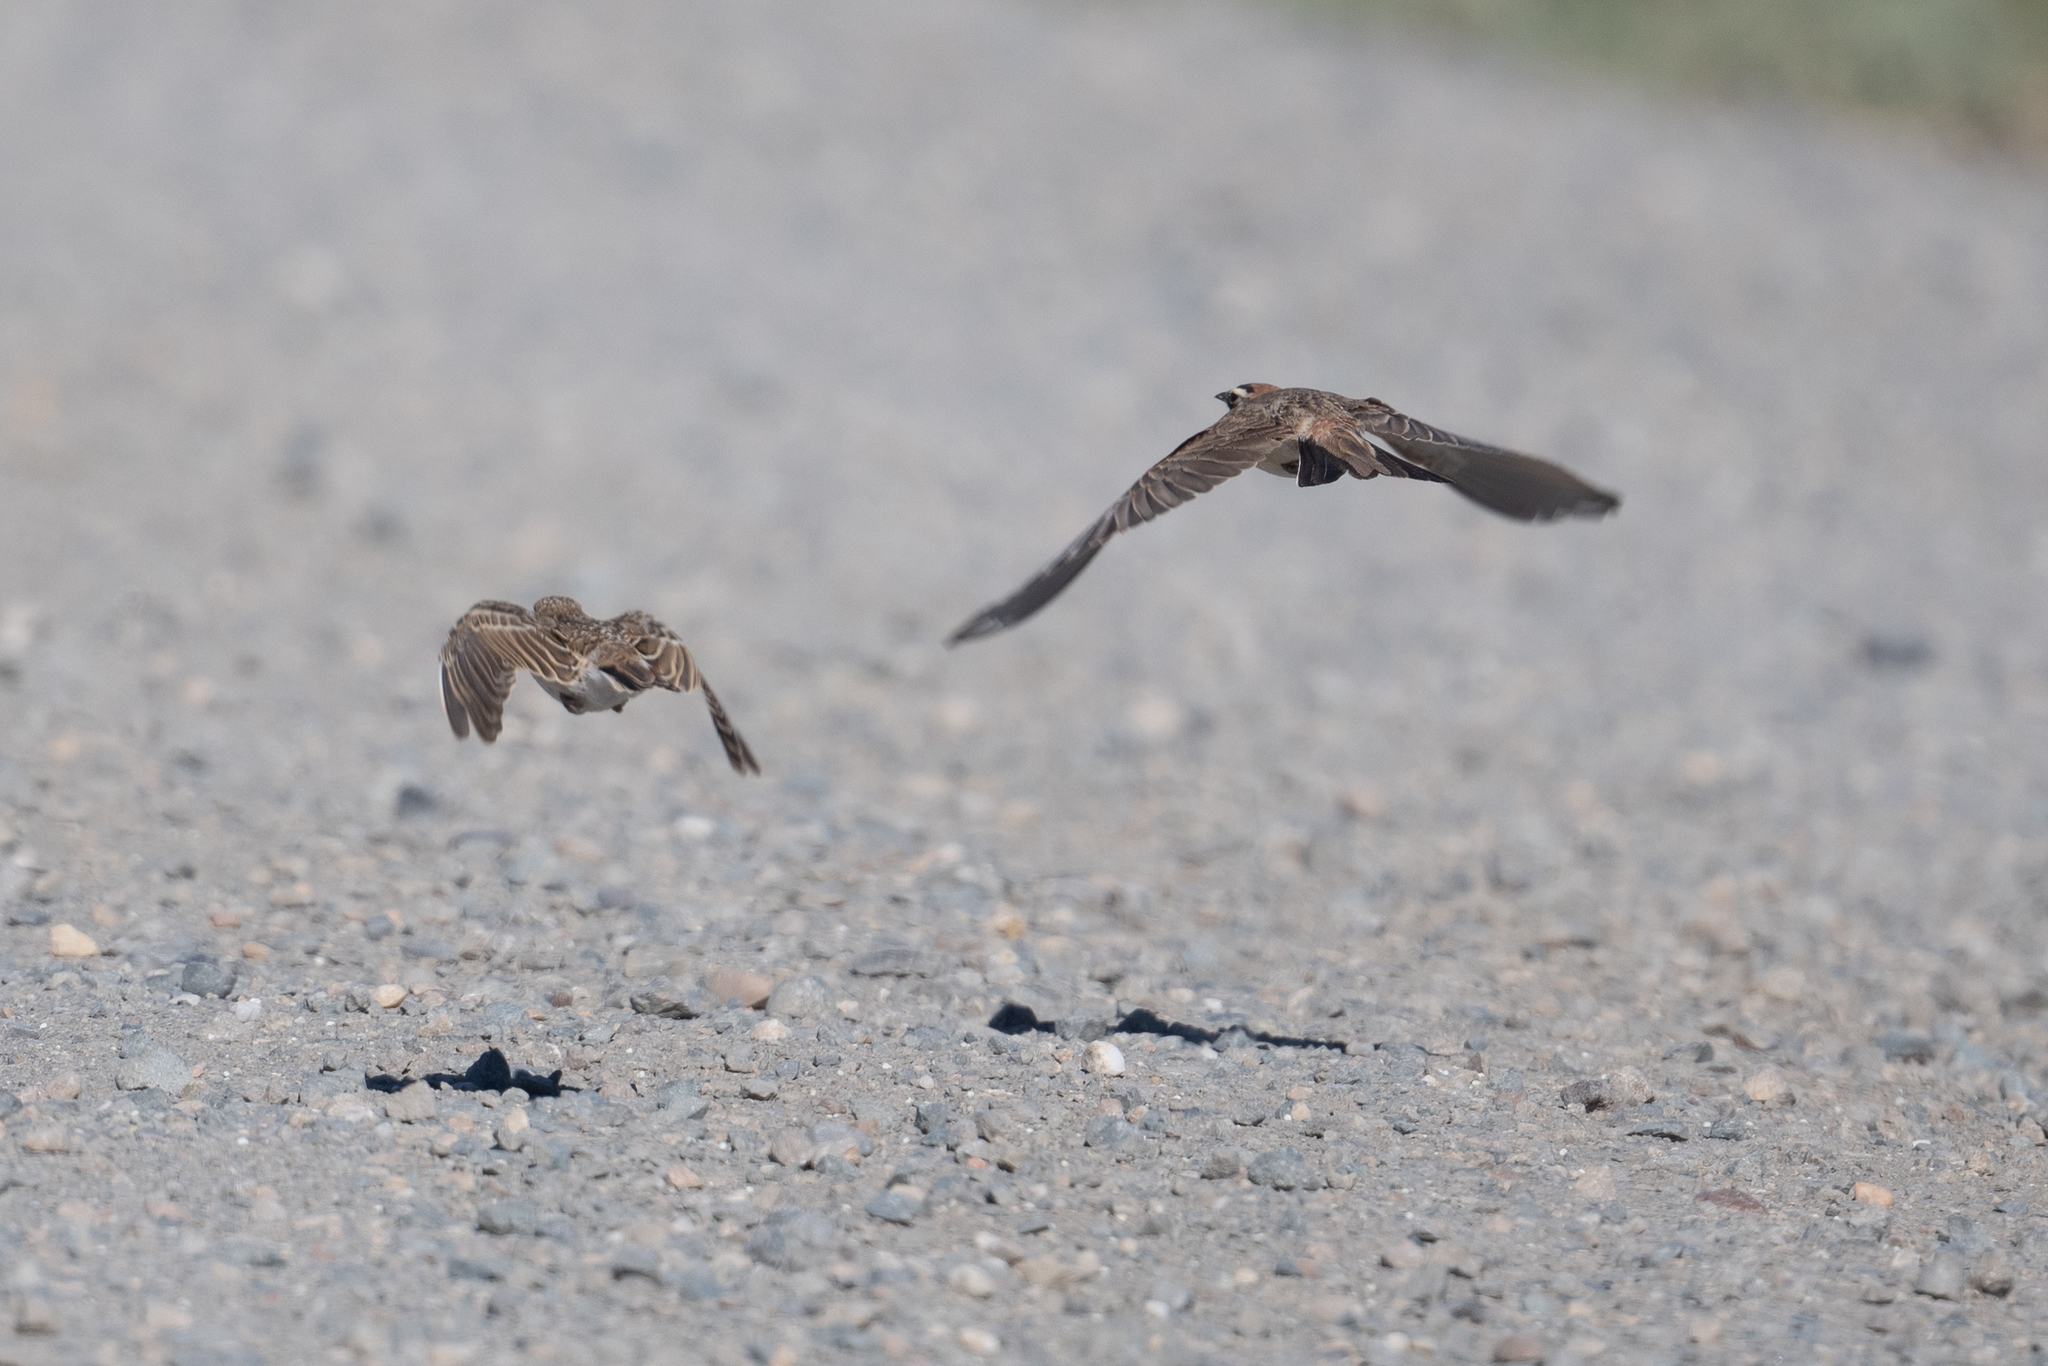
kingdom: Animalia
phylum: Chordata
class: Aves
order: Passeriformes
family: Alaudidae
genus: Eremophila
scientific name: Eremophila alpestris
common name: Horned lark
